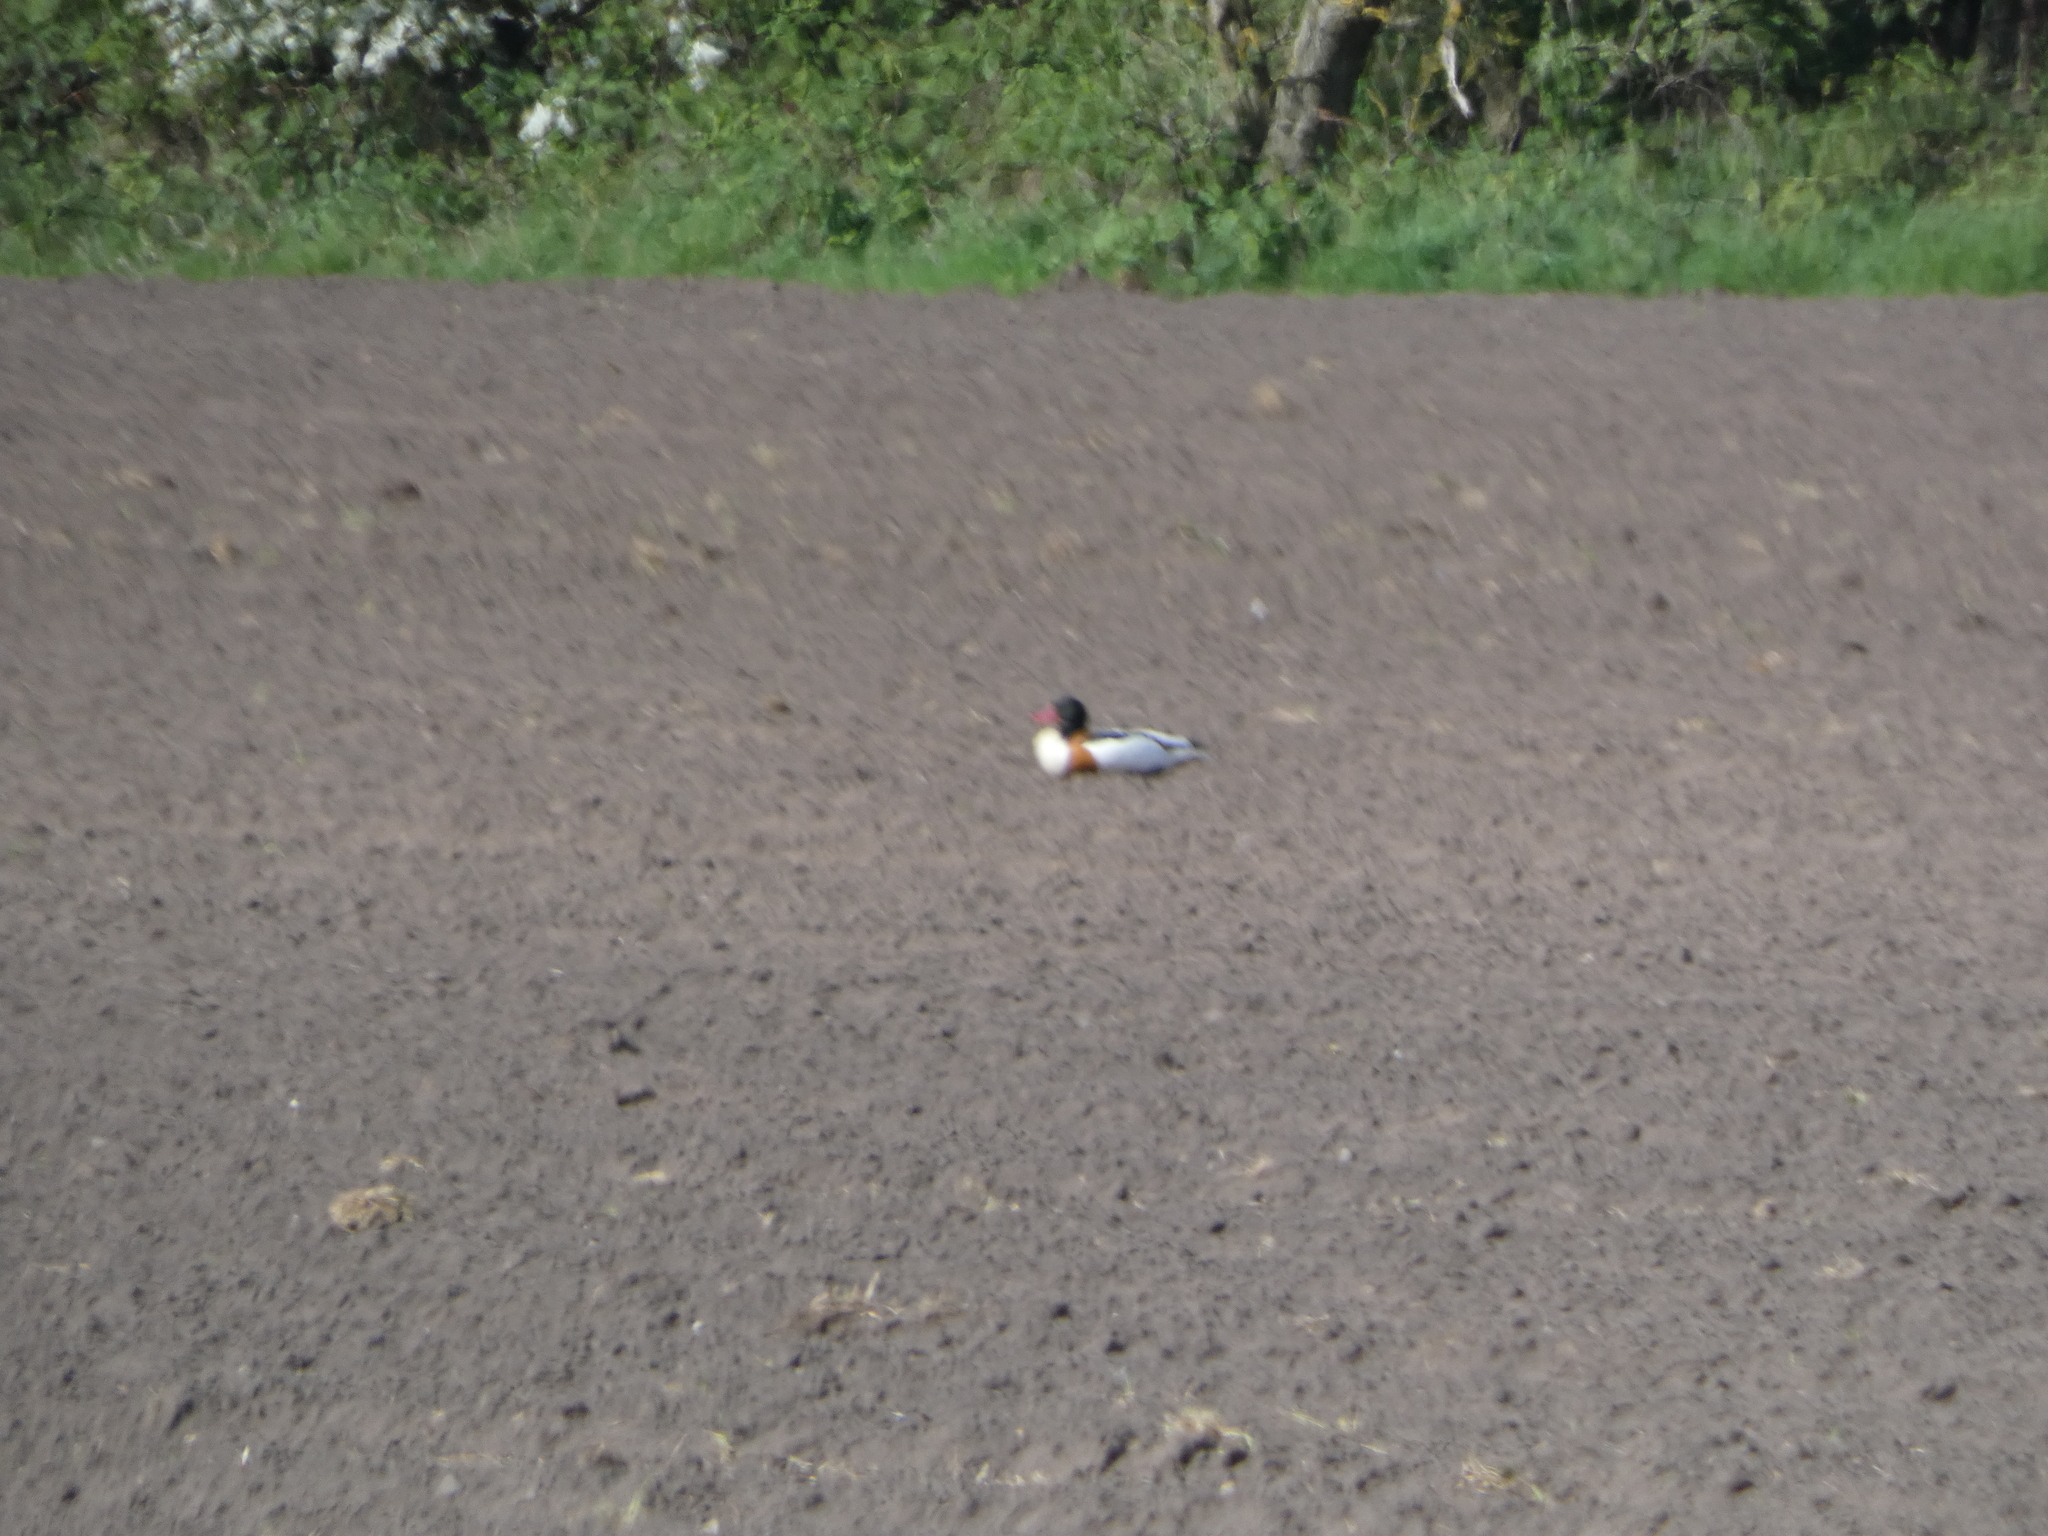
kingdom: Animalia
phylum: Chordata
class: Aves
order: Anseriformes
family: Anatidae
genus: Tadorna
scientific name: Tadorna tadorna
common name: Common shelduck
